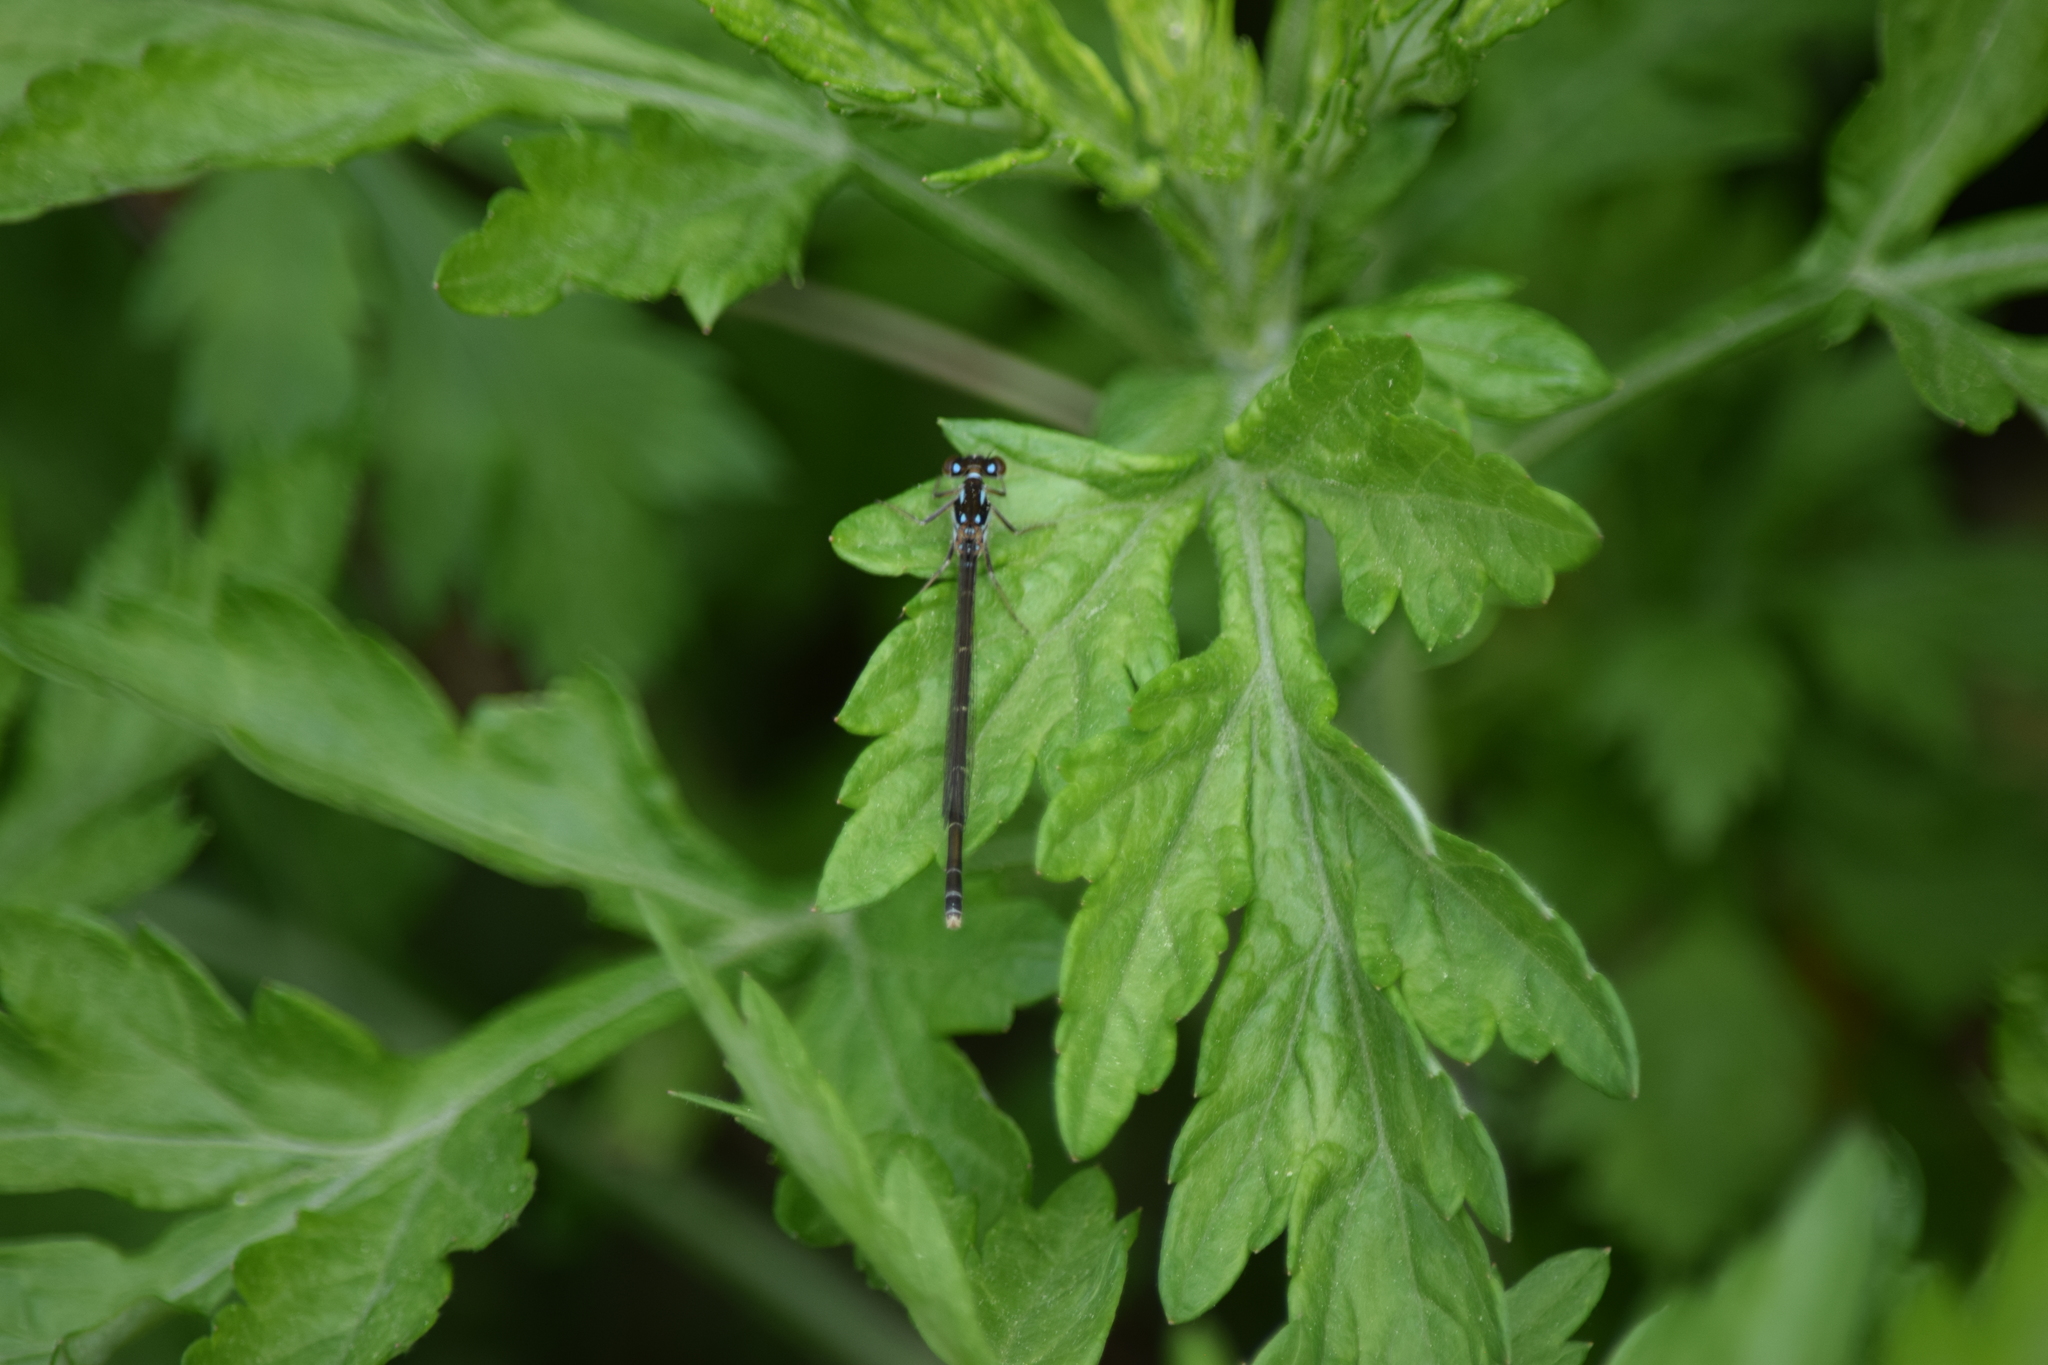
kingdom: Animalia
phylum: Arthropoda
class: Insecta
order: Odonata
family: Coenagrionidae
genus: Ischnura
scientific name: Ischnura posita
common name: Fragile forktail
